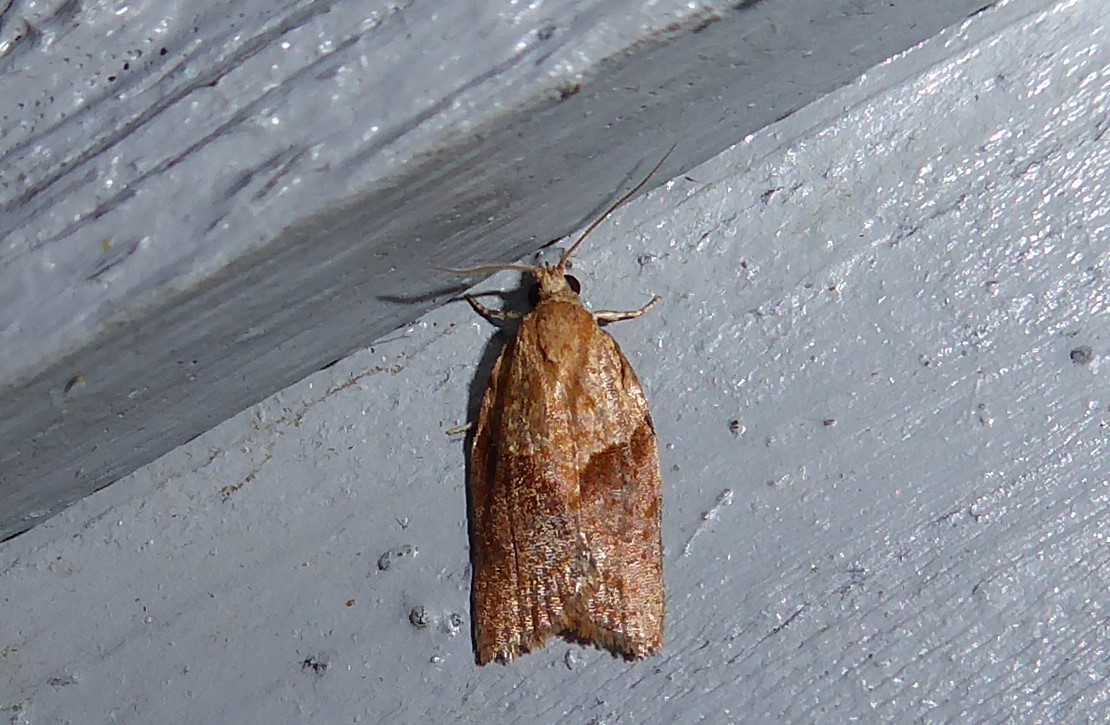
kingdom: Animalia
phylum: Arthropoda
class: Insecta
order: Lepidoptera
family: Tortricidae
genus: Epiphyas
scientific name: Epiphyas postvittana
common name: Light brown apple moth
